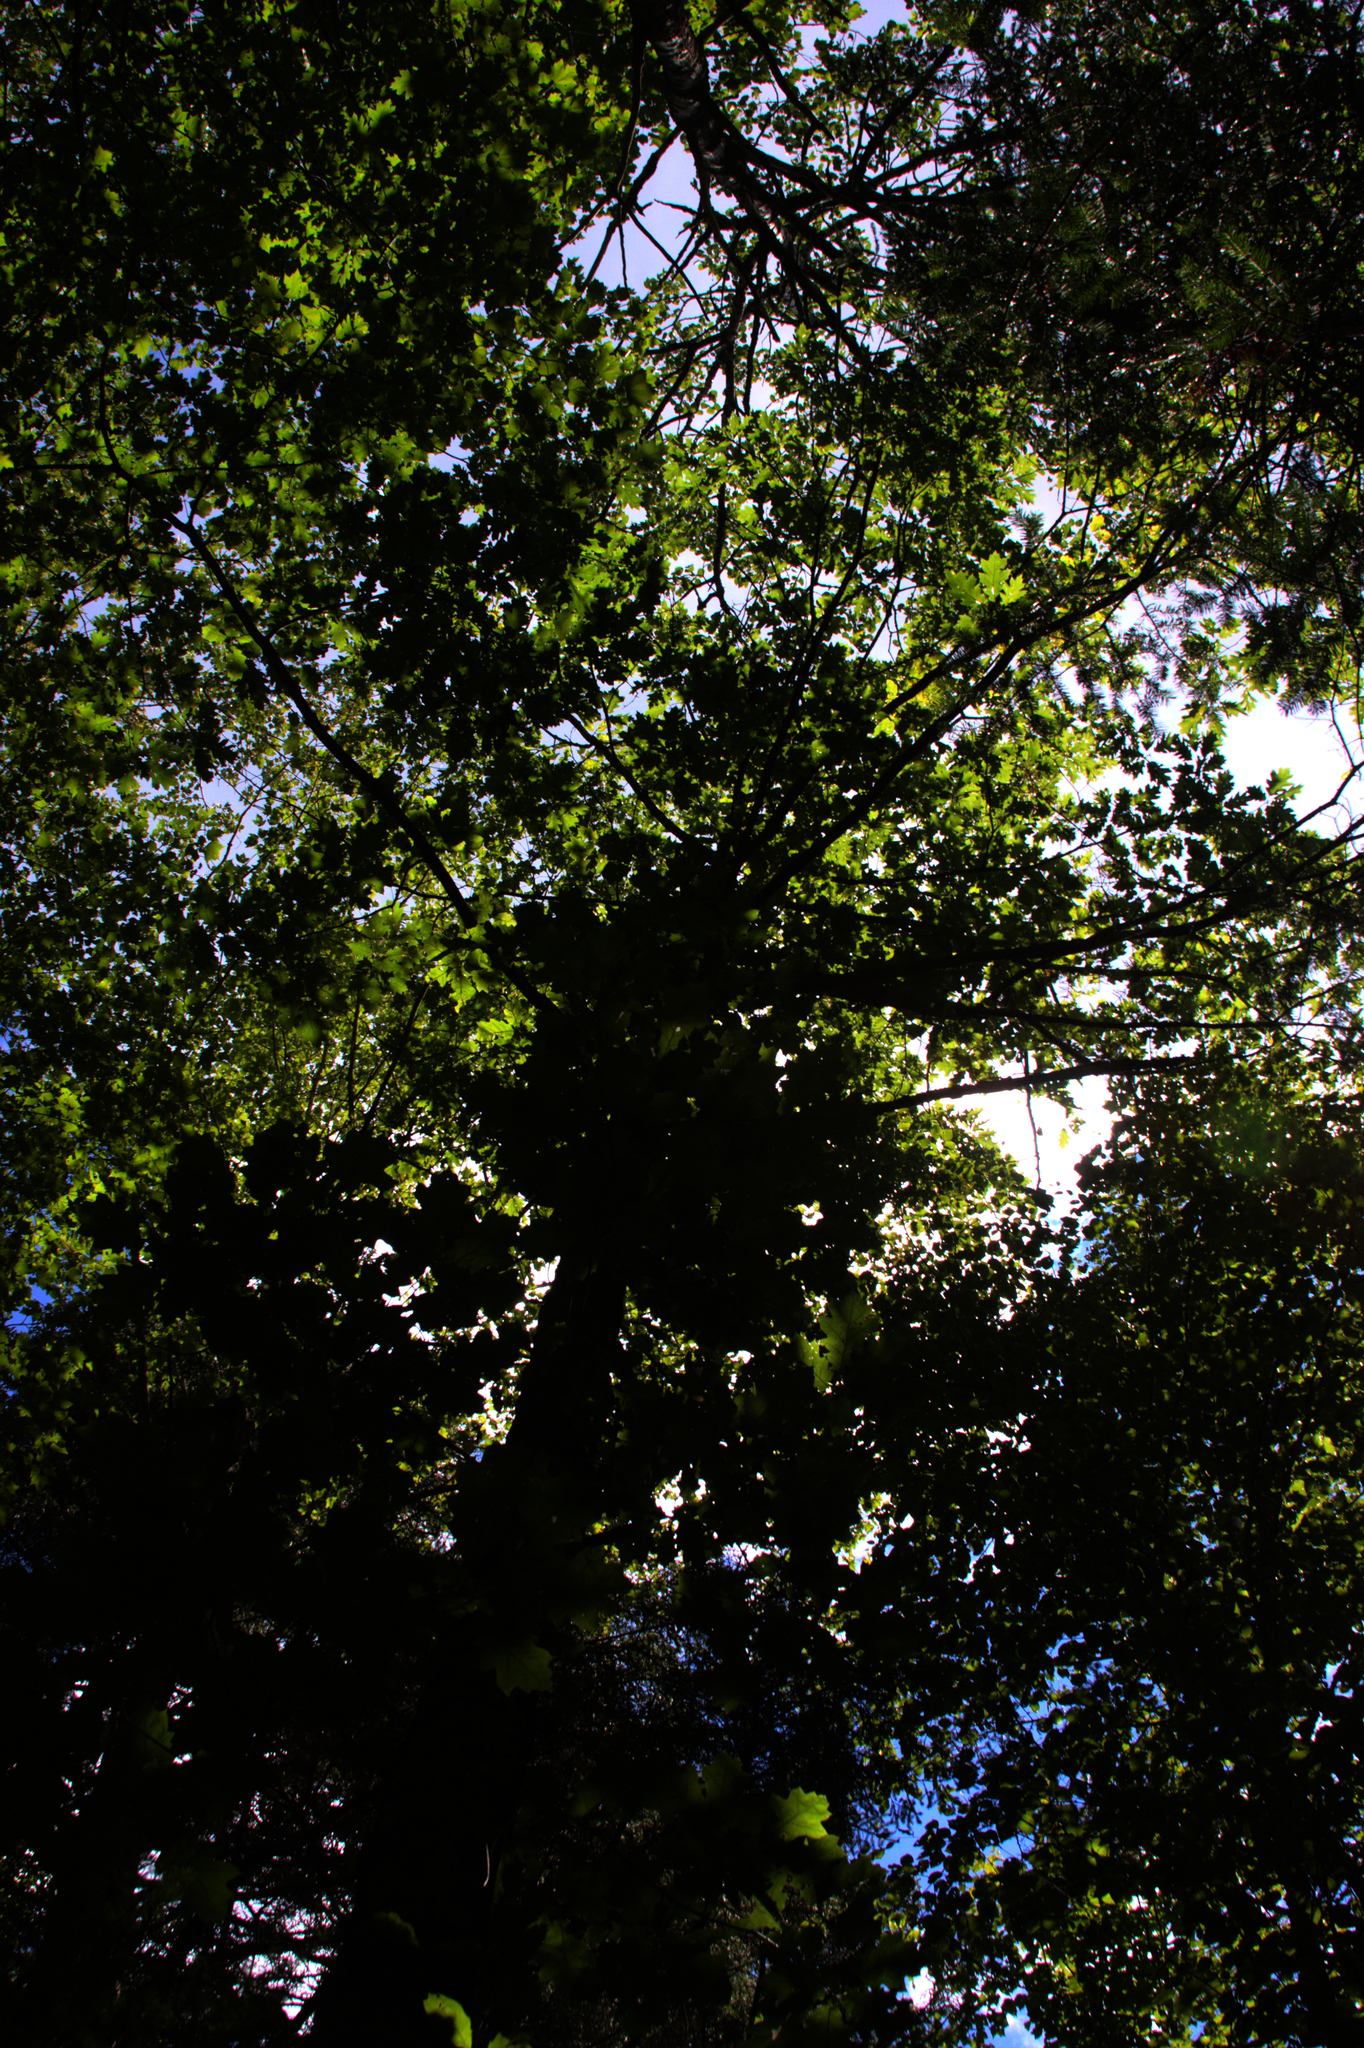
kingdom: Plantae
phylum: Tracheophyta
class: Magnoliopsida
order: Fagales
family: Fagaceae
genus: Quercus
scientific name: Quercus rubra
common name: Red oak
